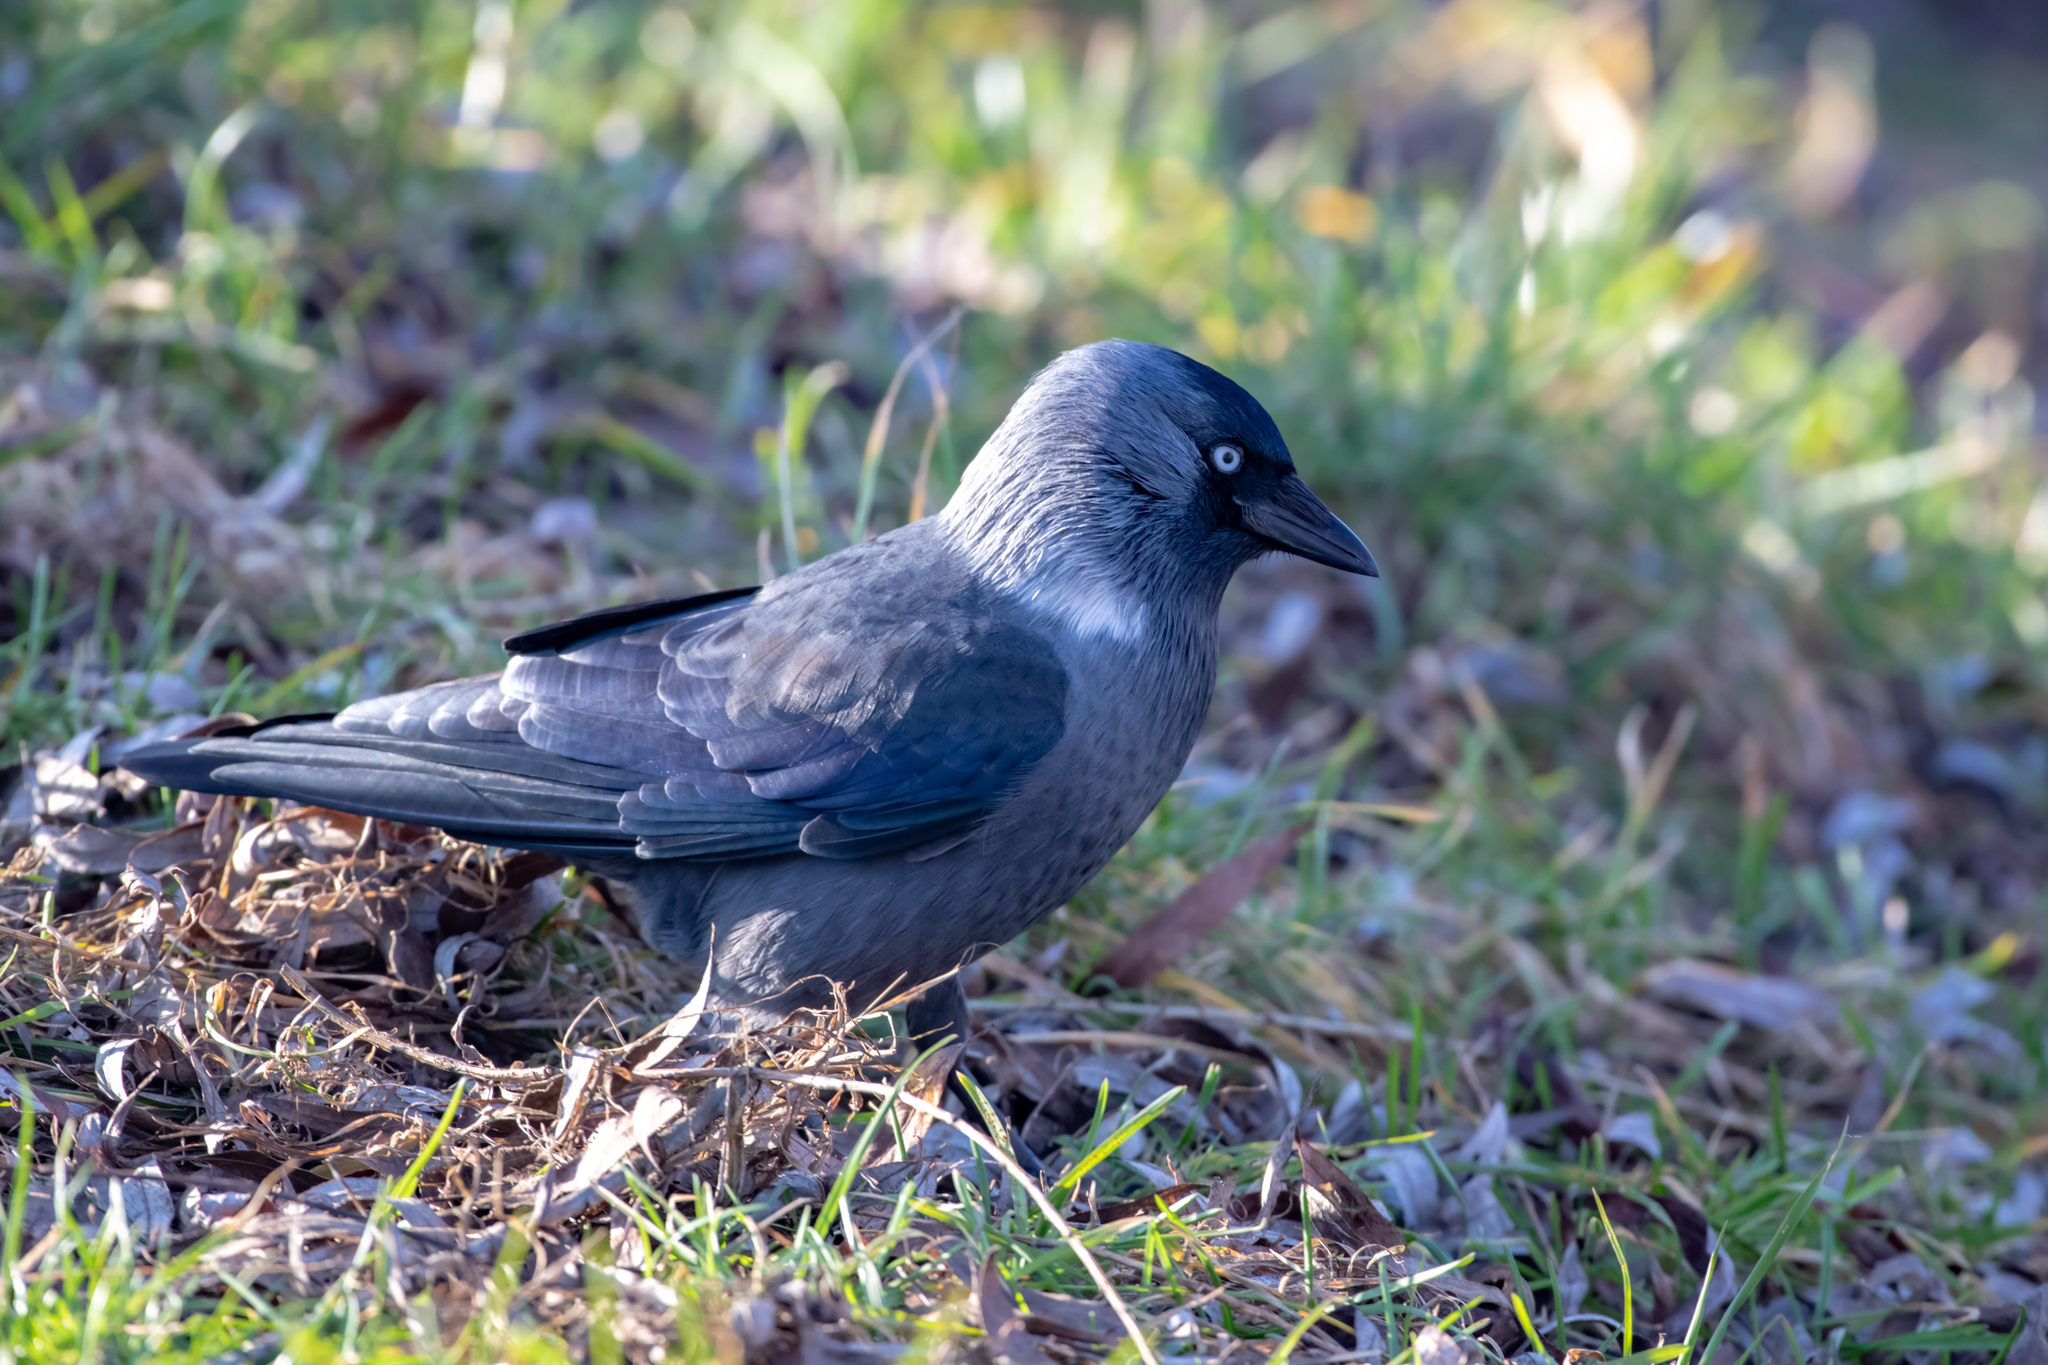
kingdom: Animalia
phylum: Chordata
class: Aves
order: Passeriformes
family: Corvidae
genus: Coloeus
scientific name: Coloeus monedula
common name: Western jackdaw
